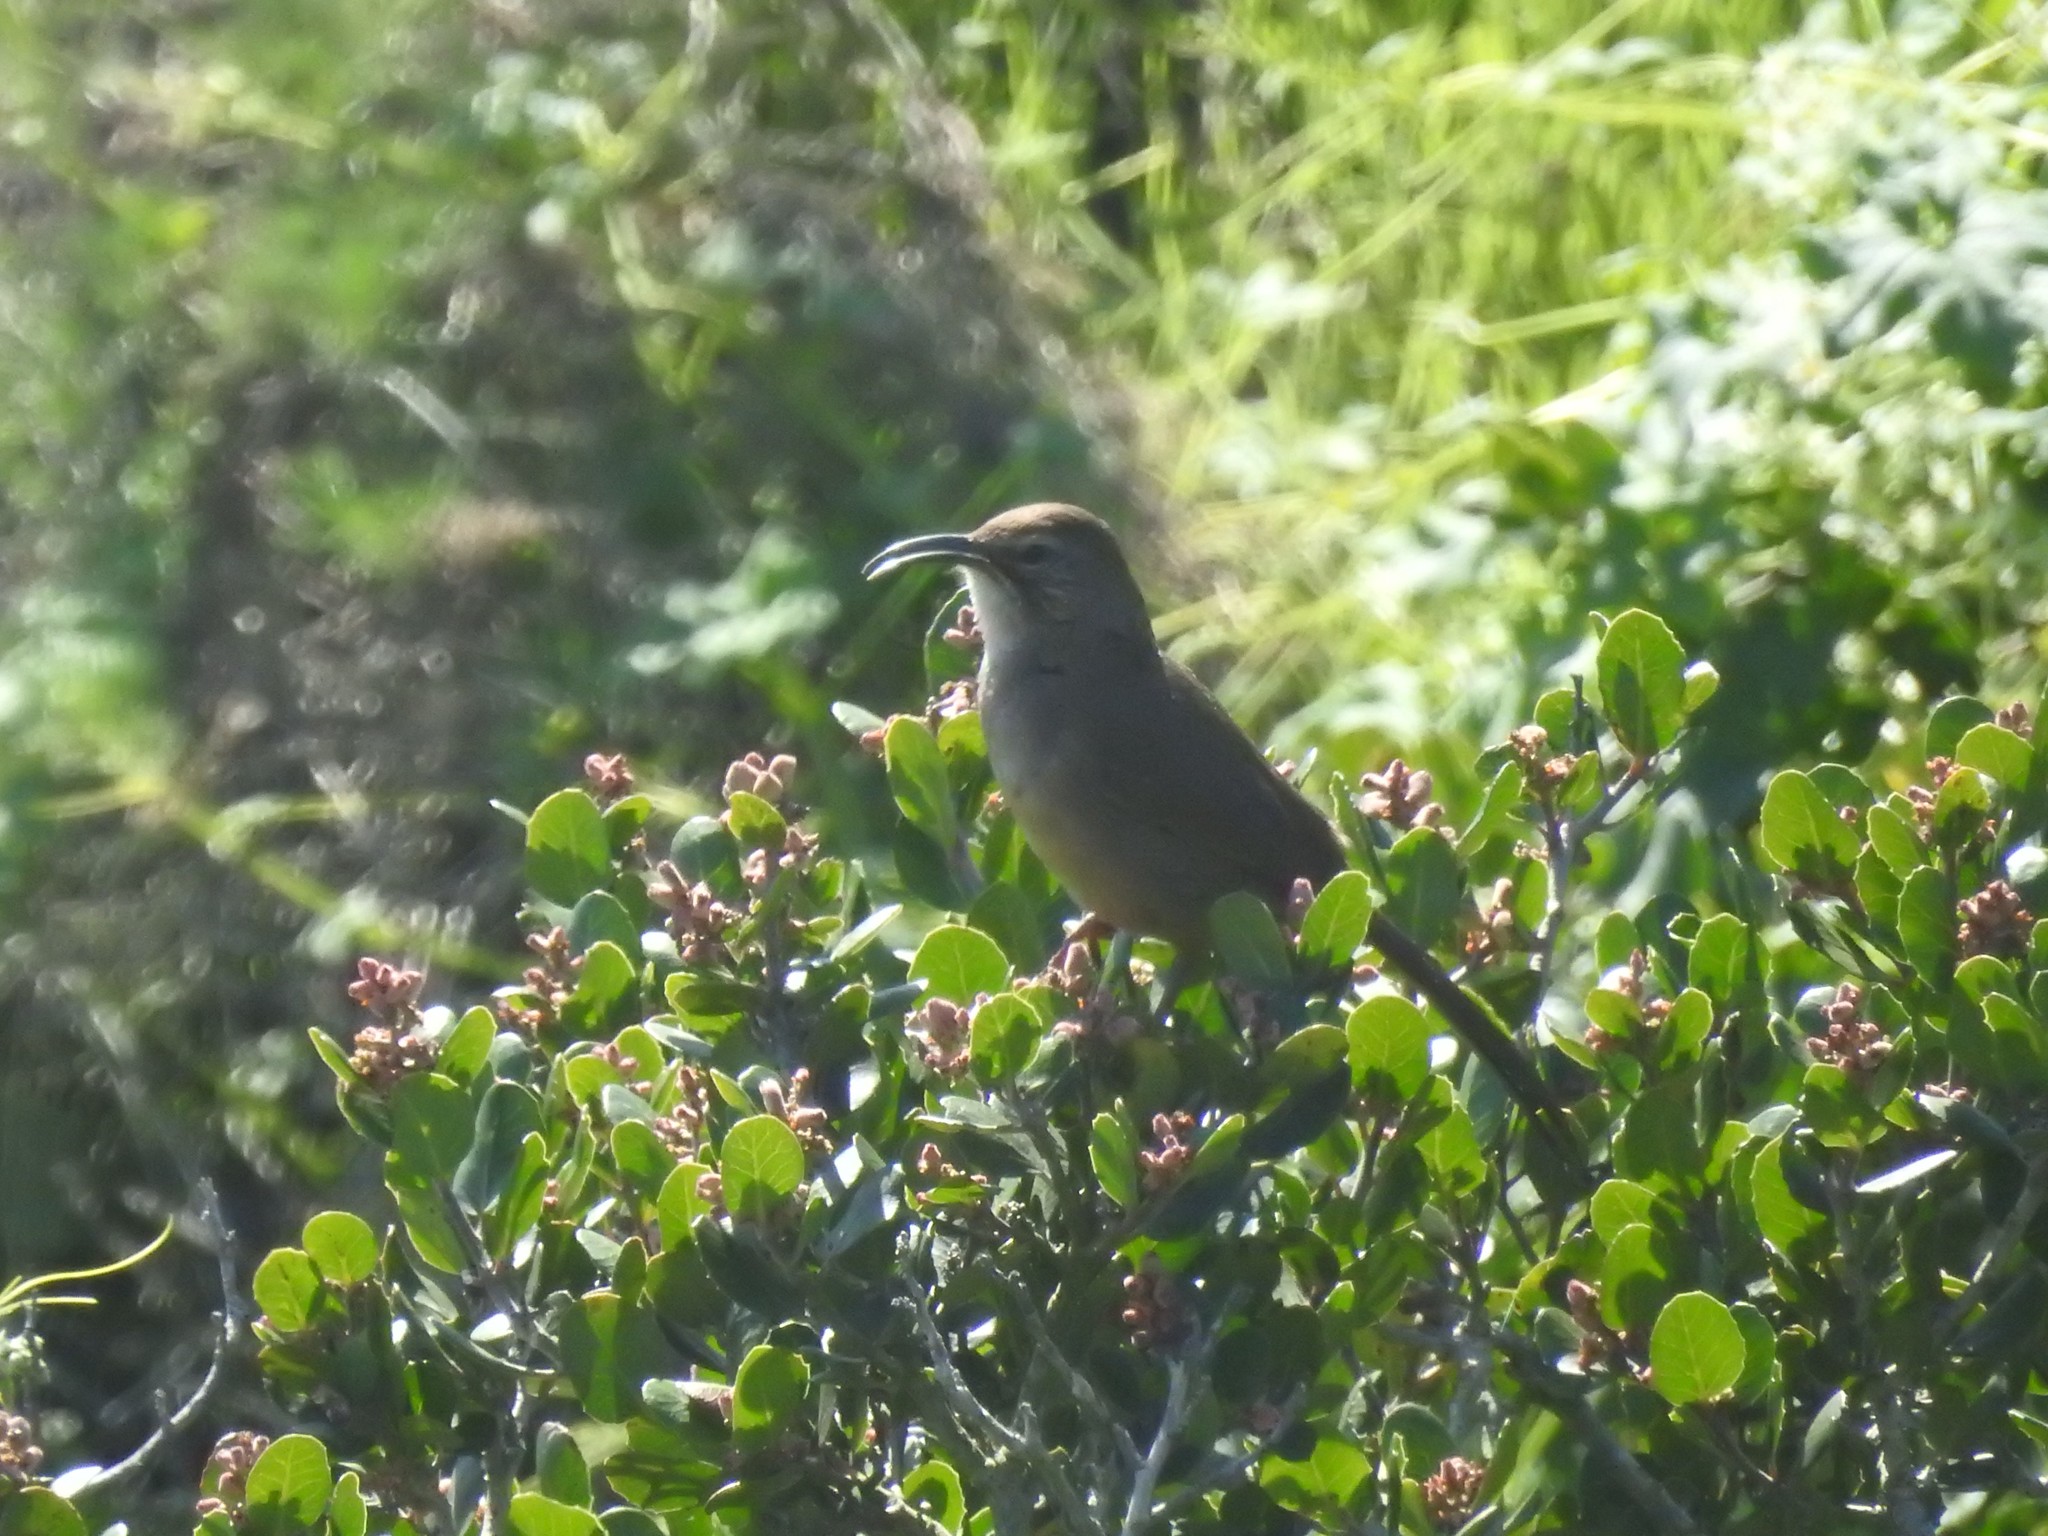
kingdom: Animalia
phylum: Chordata
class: Aves
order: Passeriformes
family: Mimidae
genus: Toxostoma
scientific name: Toxostoma redivivum
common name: California thrasher
